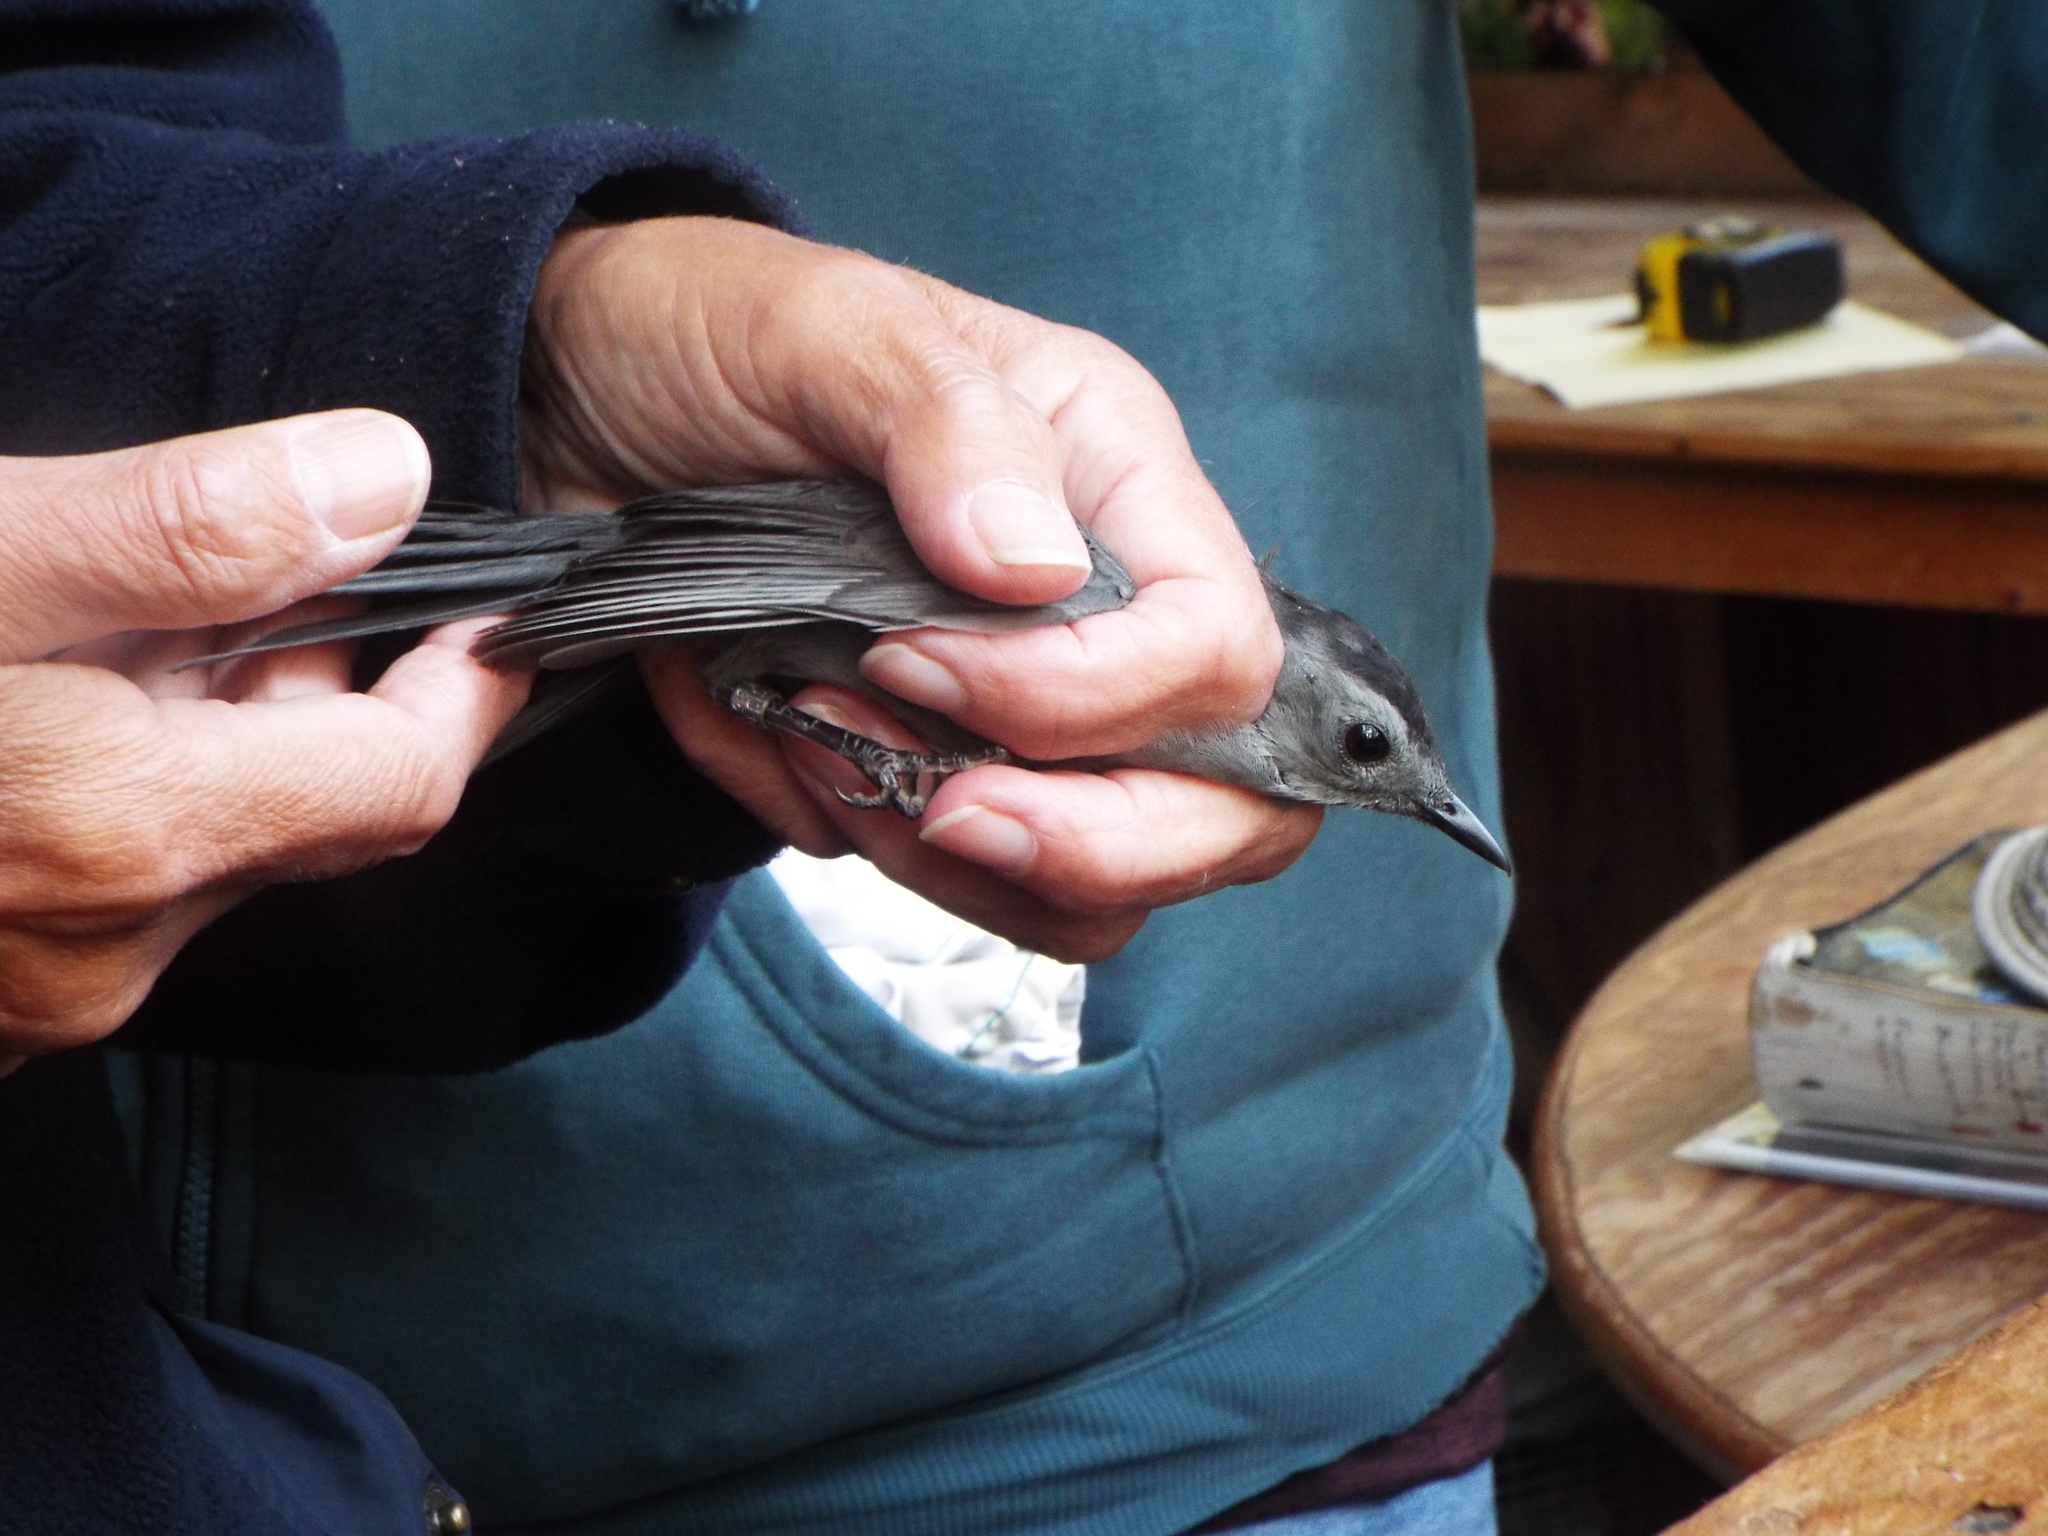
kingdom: Animalia
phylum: Chordata
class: Aves
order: Passeriformes
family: Mimidae
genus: Dumetella
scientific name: Dumetella carolinensis
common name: Gray catbird
